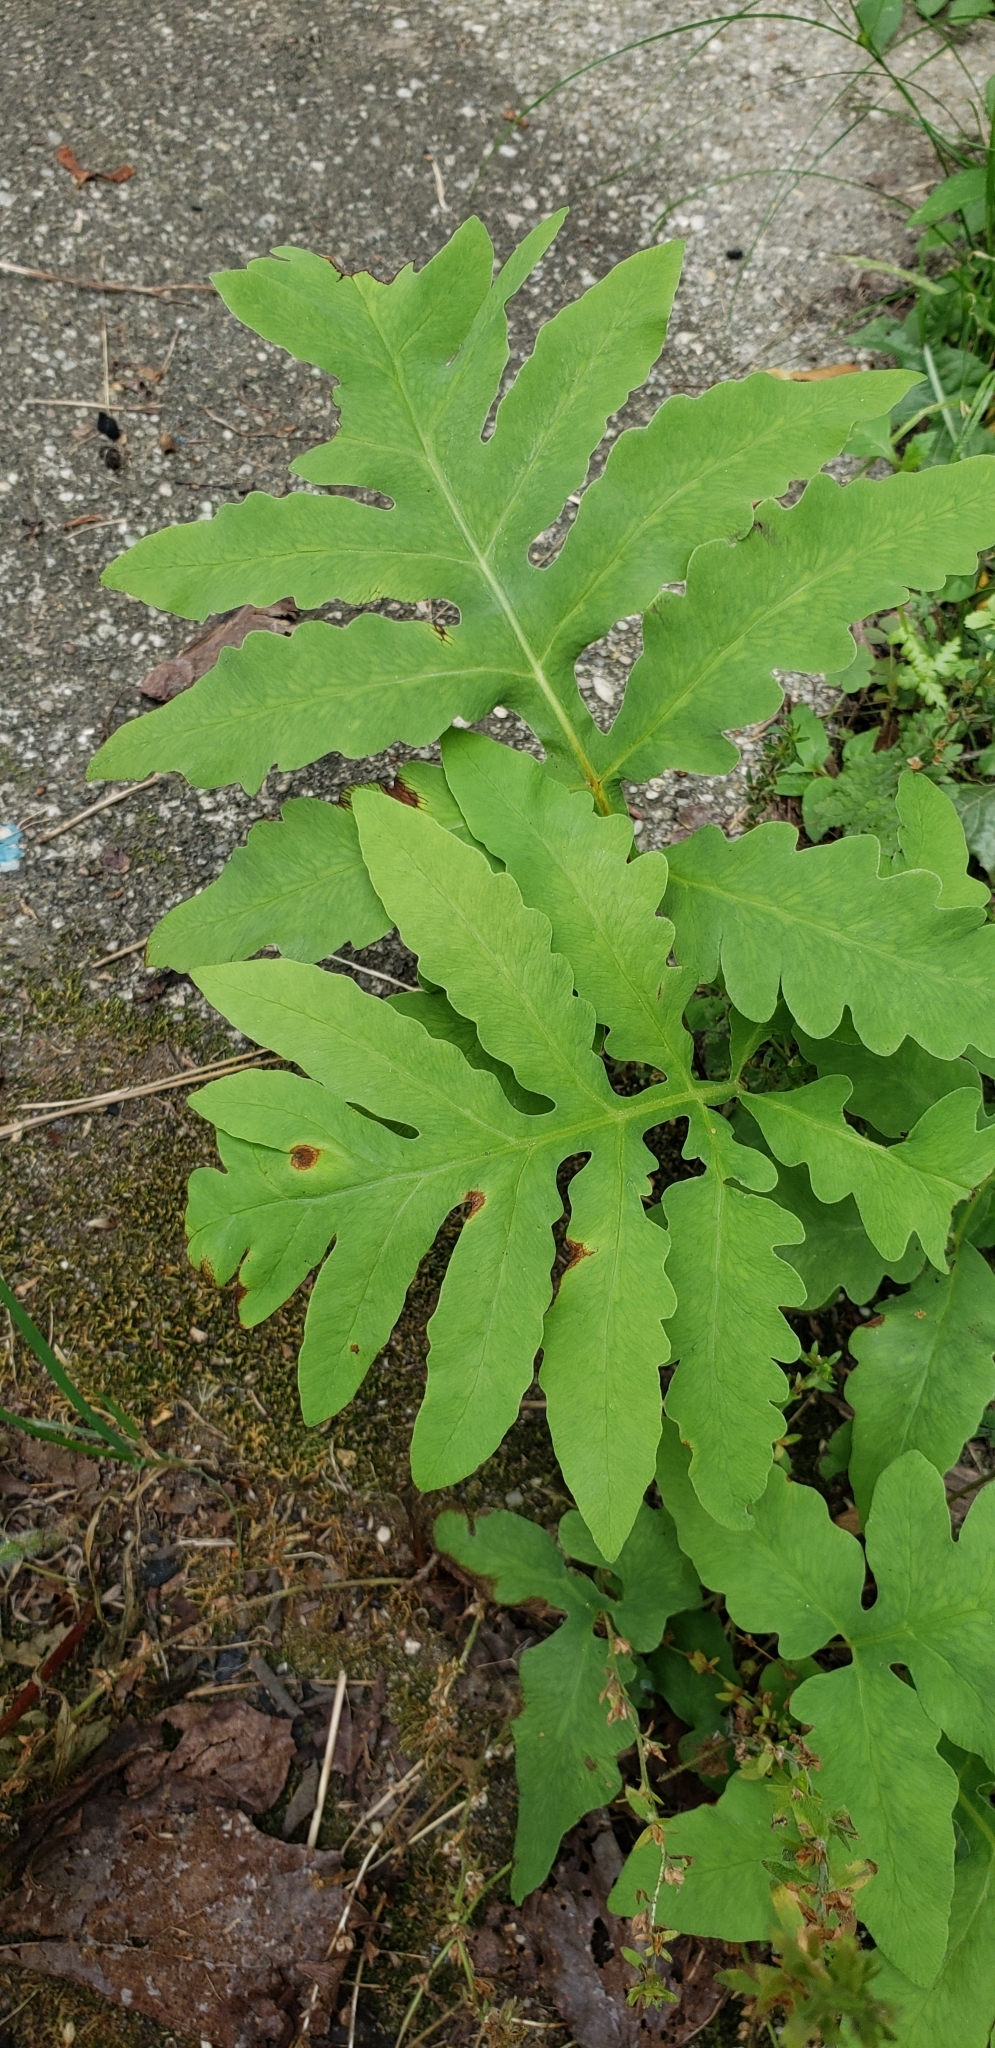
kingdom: Plantae
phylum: Tracheophyta
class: Polypodiopsida
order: Polypodiales
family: Onocleaceae
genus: Onoclea
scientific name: Onoclea sensibilis
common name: Sensitive fern
